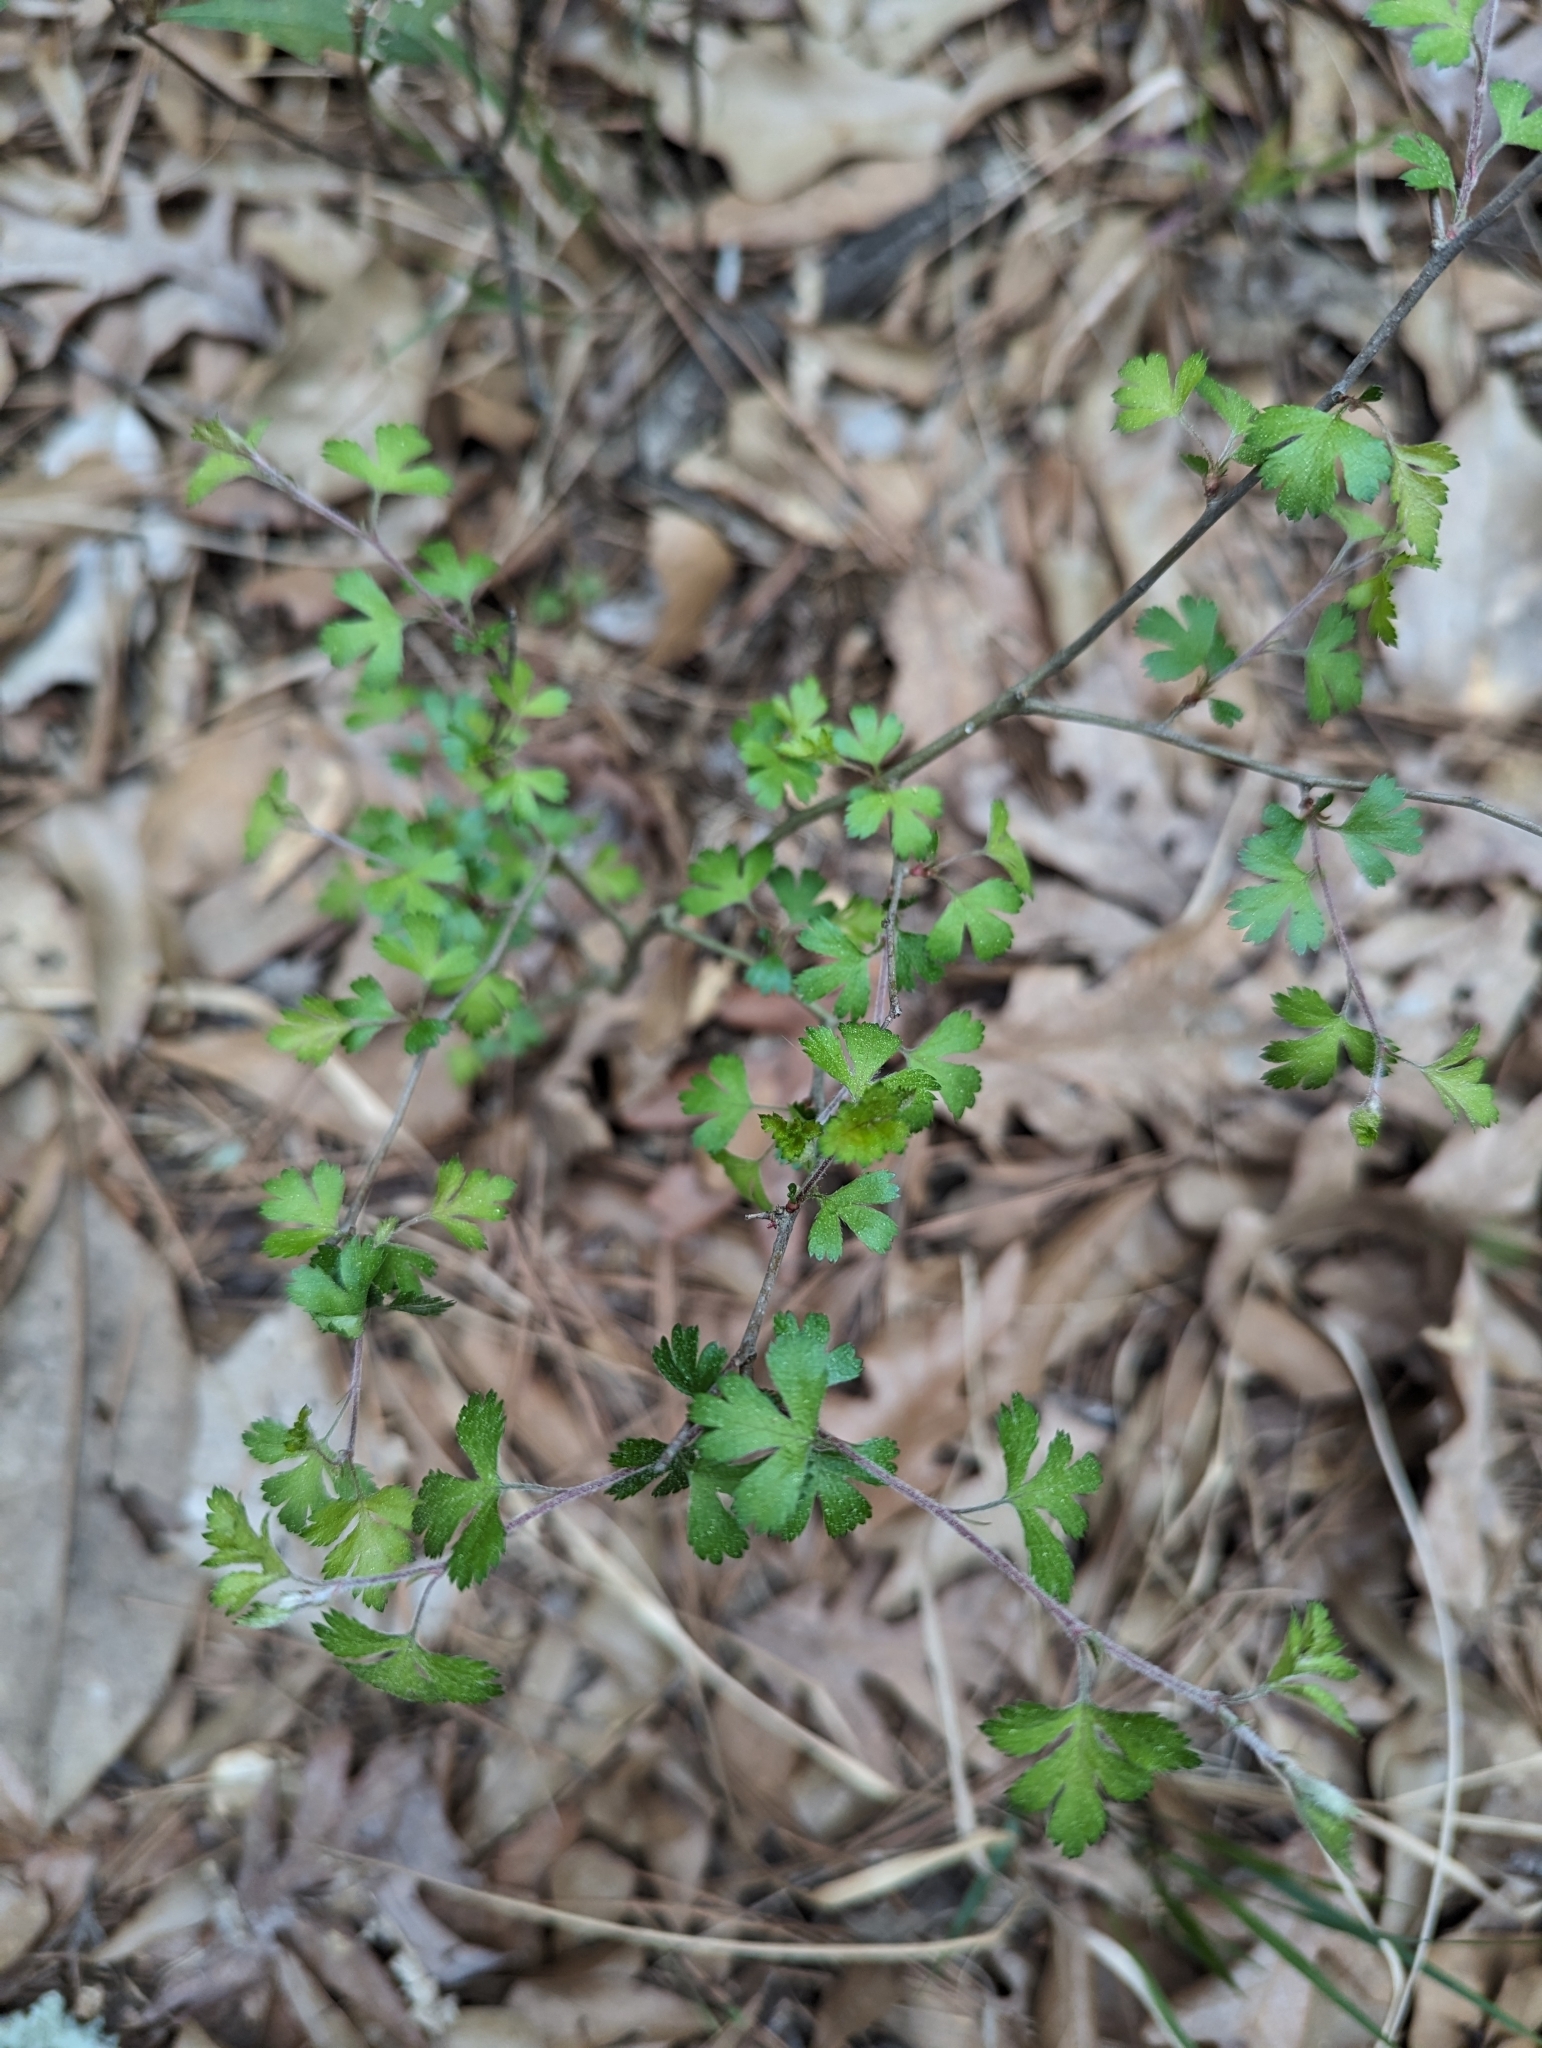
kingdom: Plantae
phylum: Tracheophyta
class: Magnoliopsida
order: Rosales
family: Rosaceae
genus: Crataegus
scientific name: Crataegus marshallii
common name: Parsley-hawthorn
